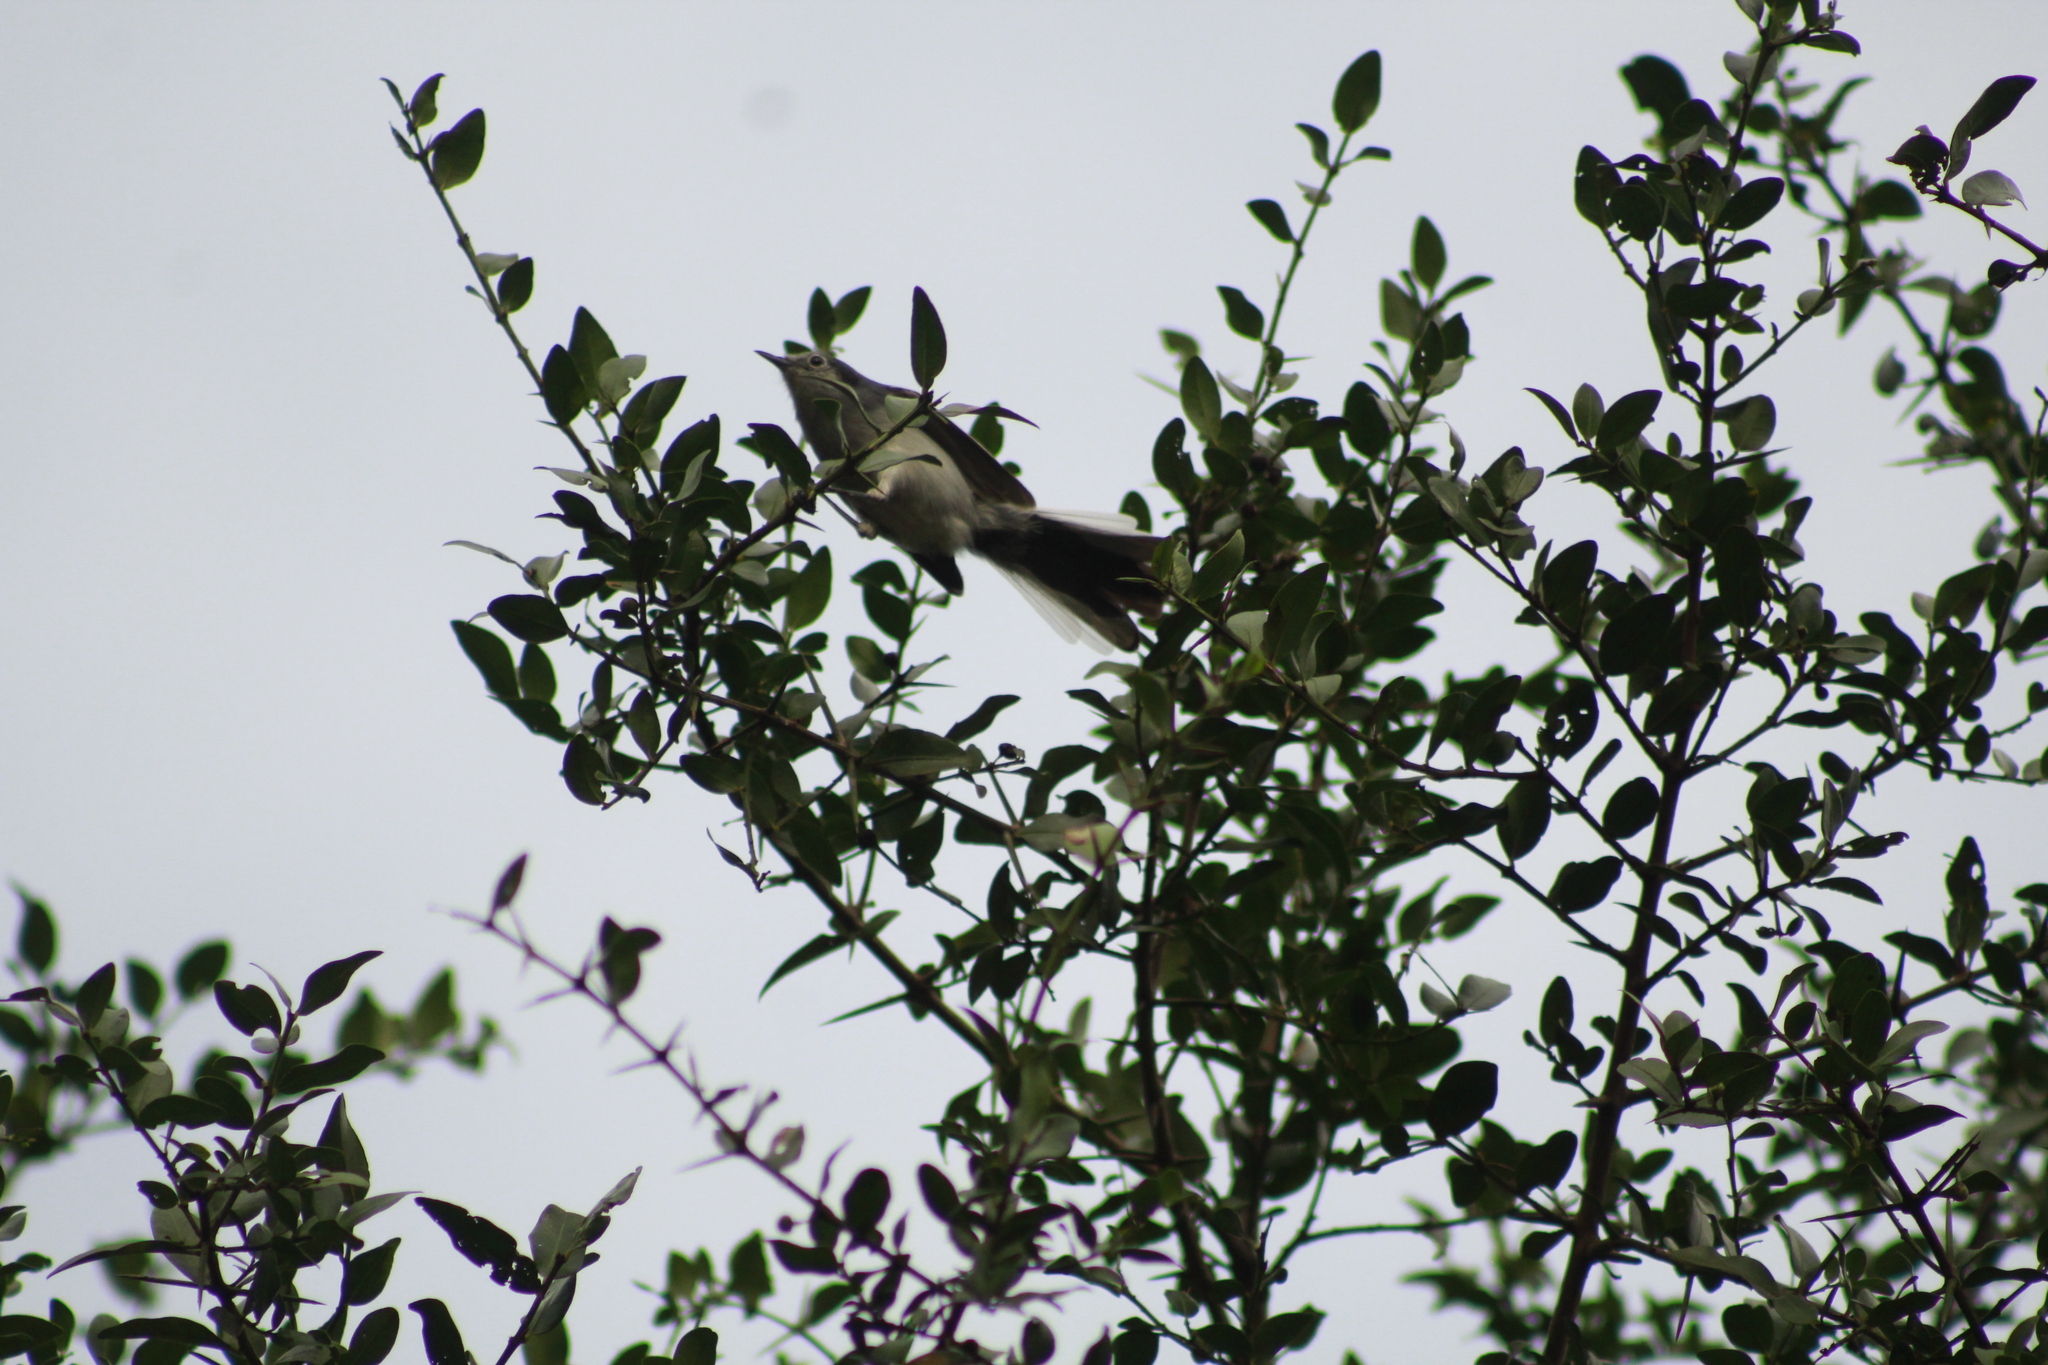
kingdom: Animalia
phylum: Chordata
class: Aves
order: Passeriformes
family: Polioptilidae
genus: Polioptila
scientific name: Polioptila dumicola
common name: Masked gnatcatcher
